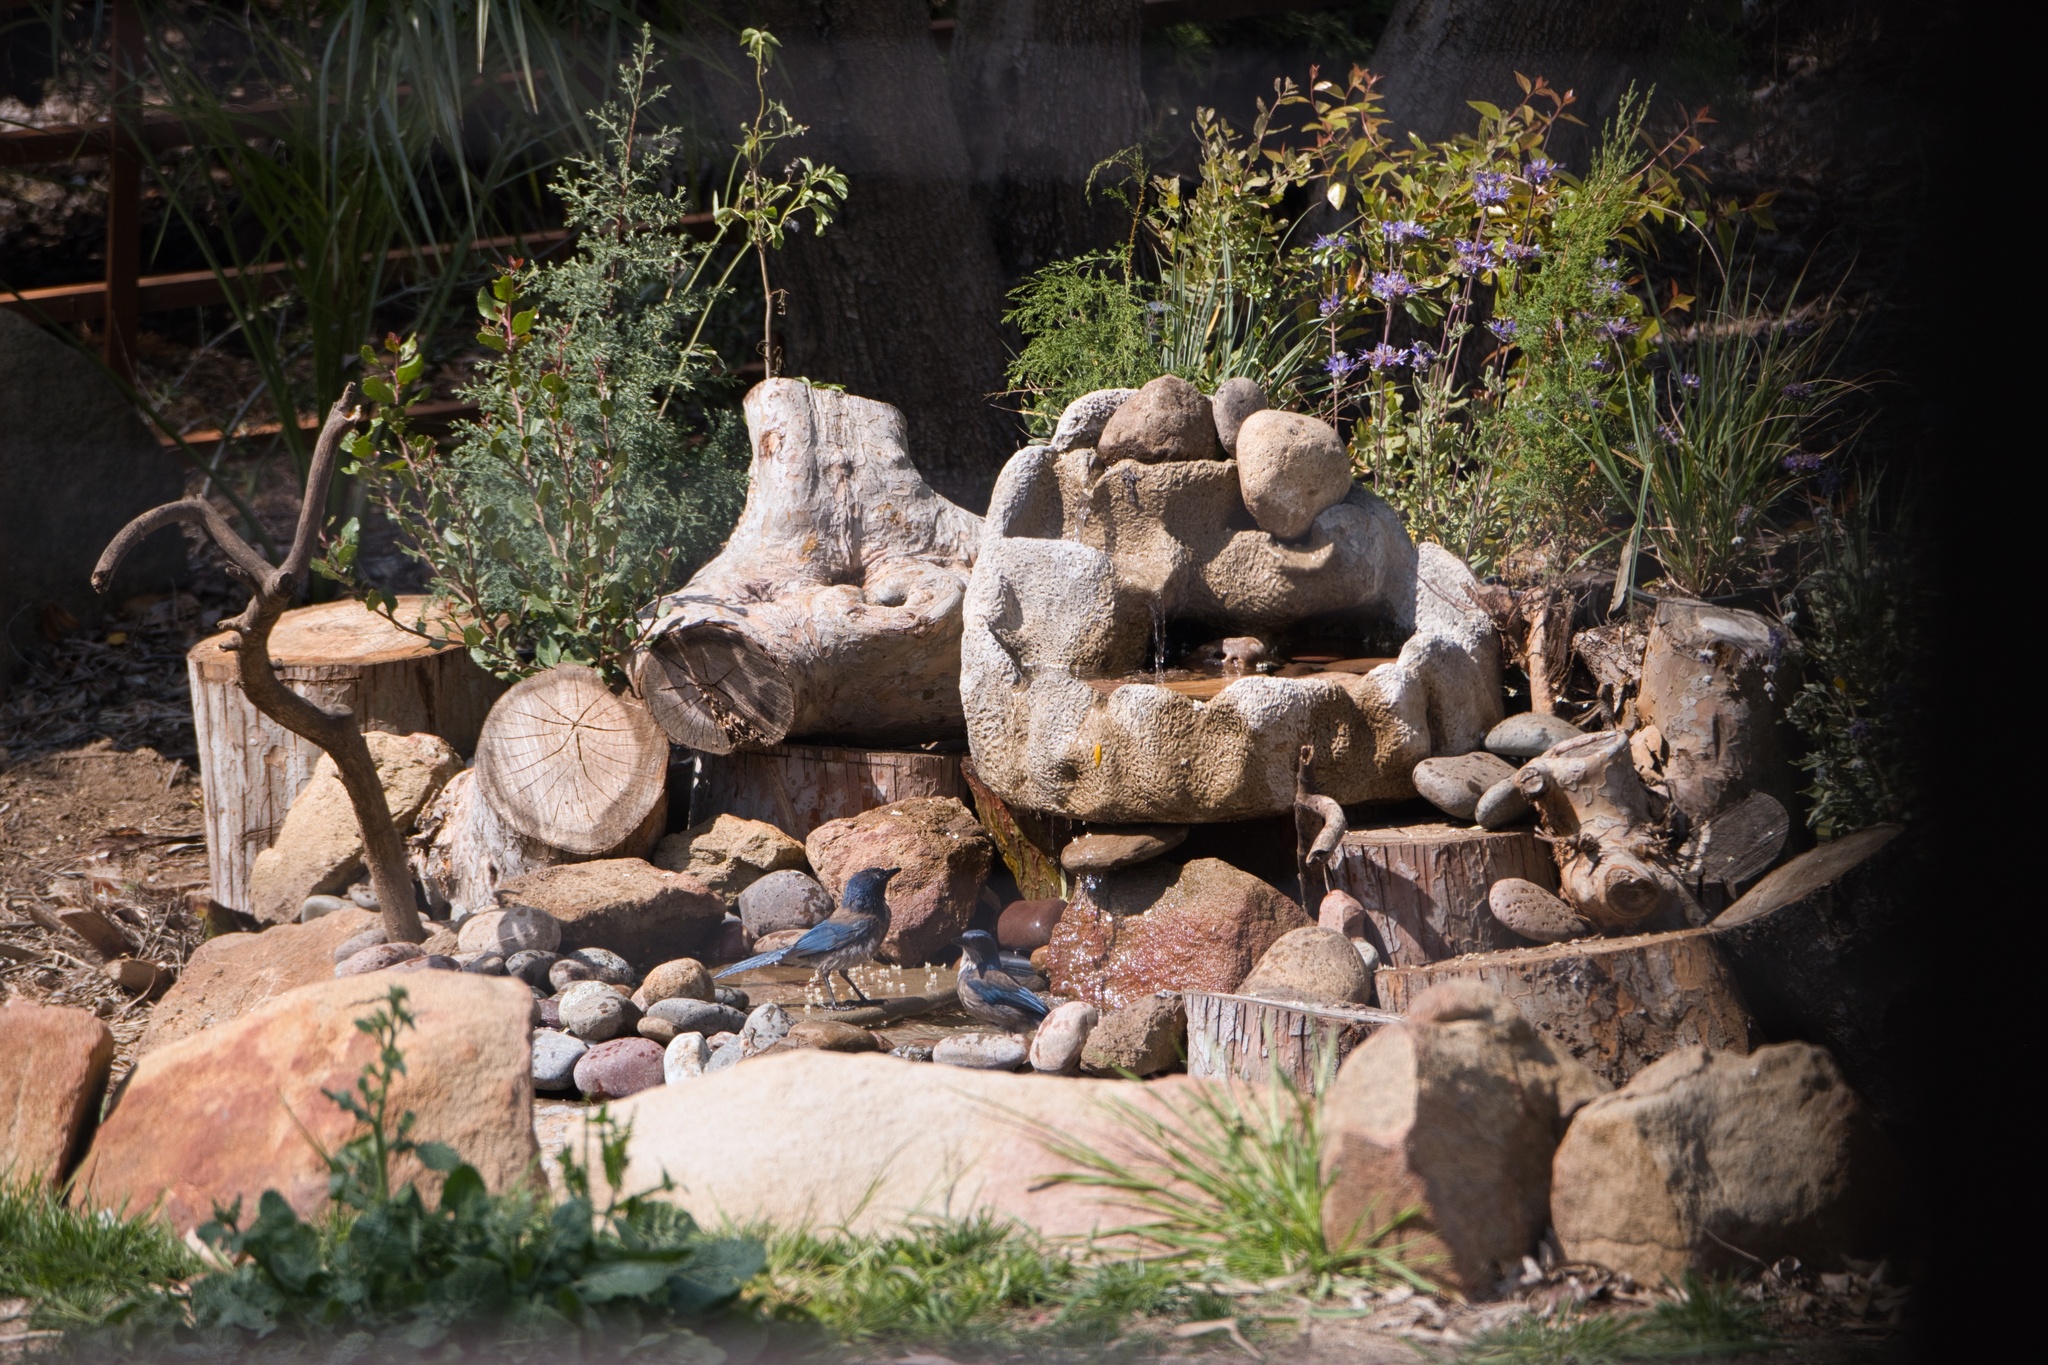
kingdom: Animalia
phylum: Chordata
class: Aves
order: Passeriformes
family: Corvidae
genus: Aphelocoma
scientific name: Aphelocoma californica
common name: California scrub-jay
